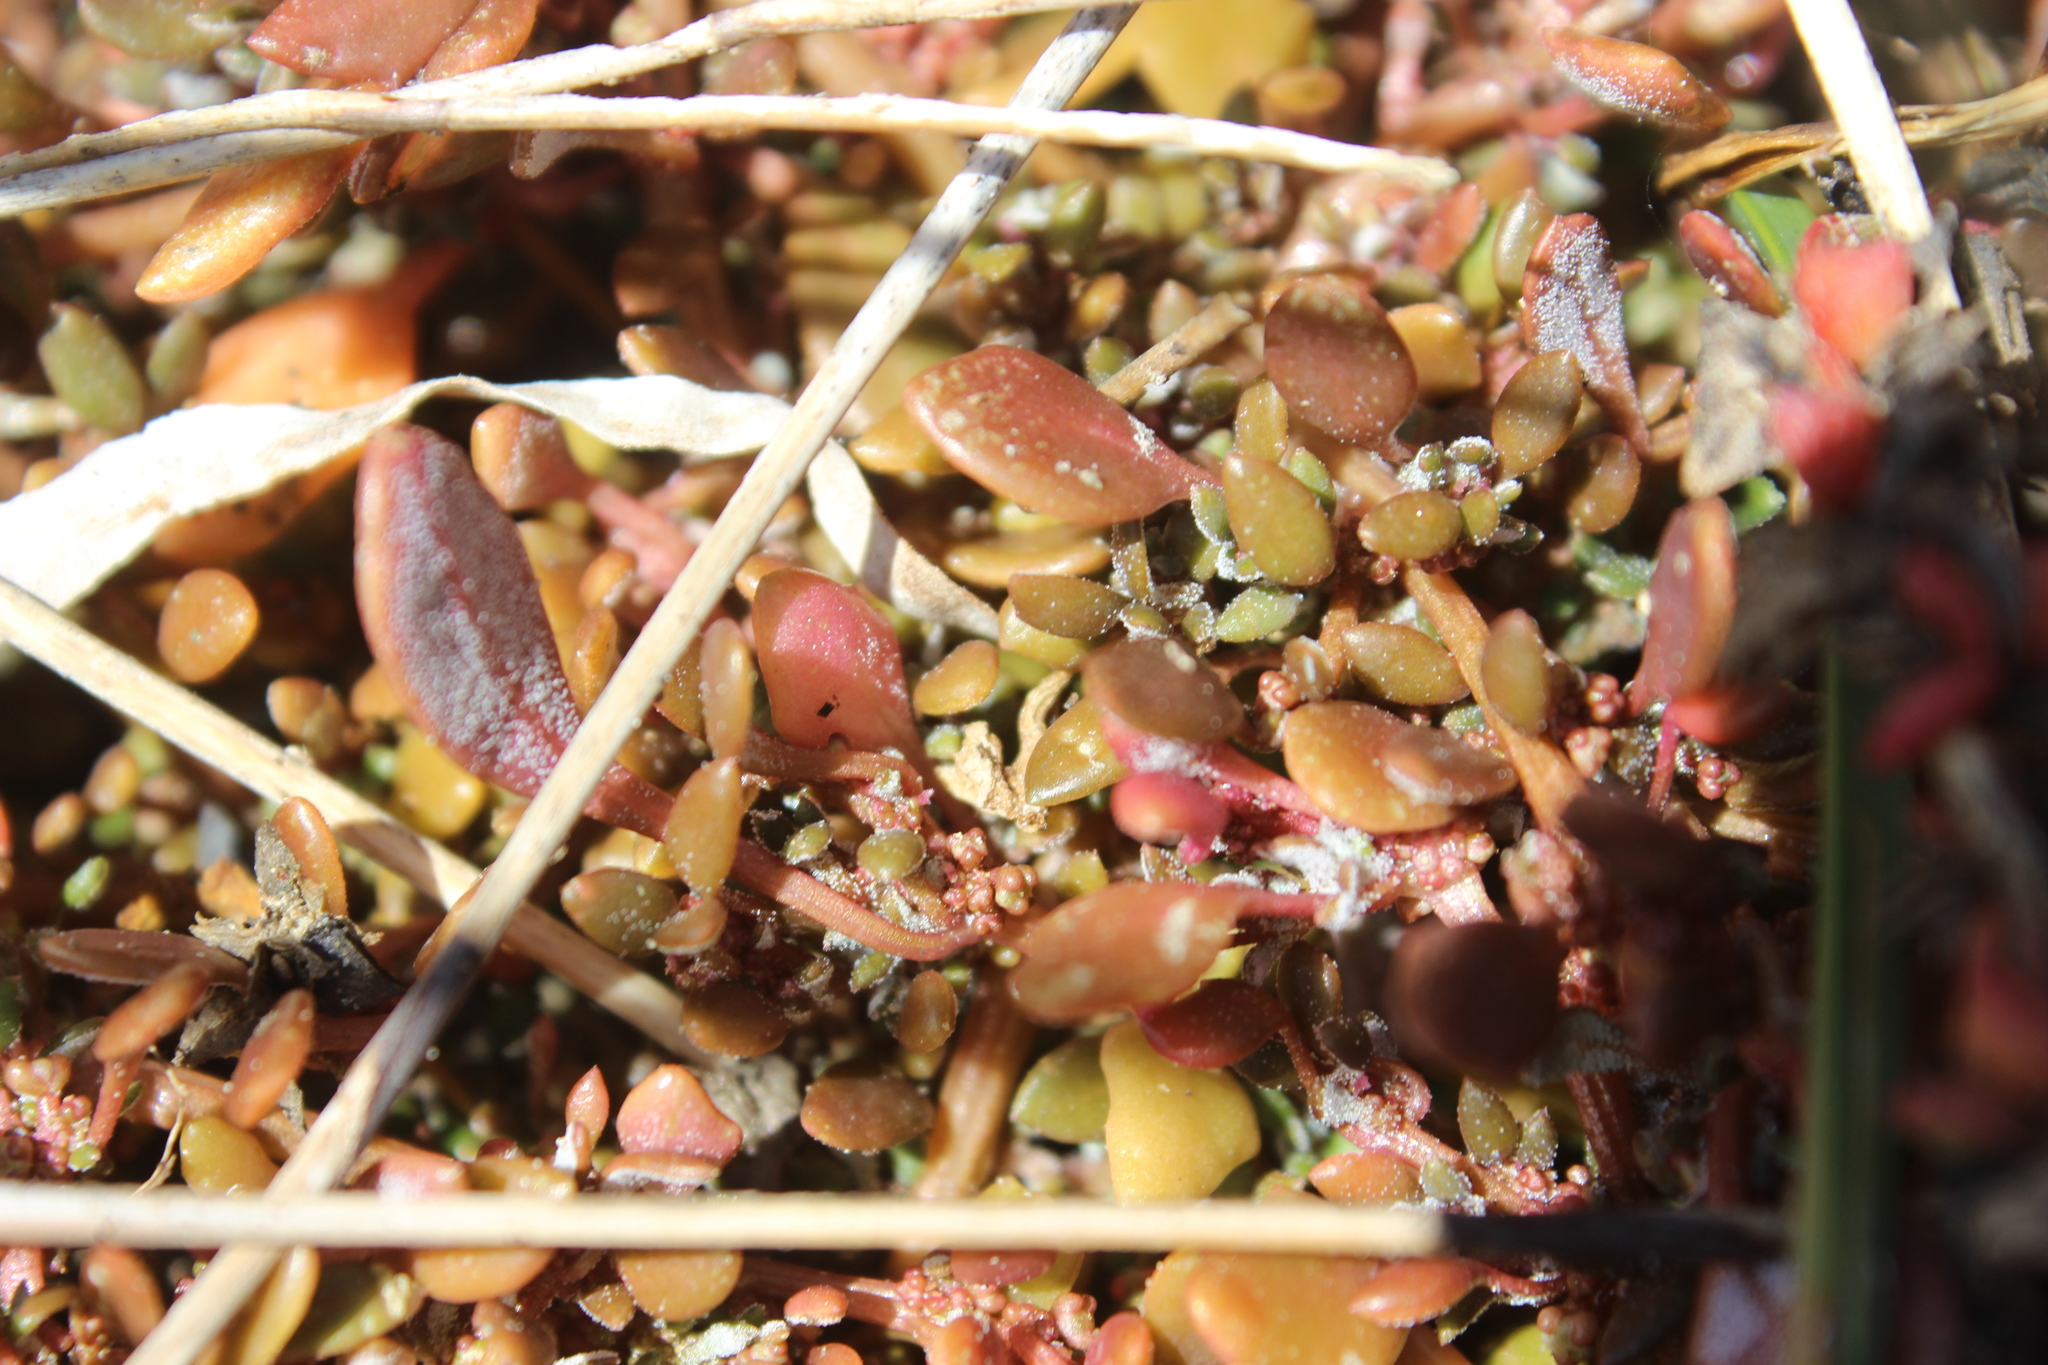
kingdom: Plantae
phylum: Tracheophyta
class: Magnoliopsida
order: Caryophyllales
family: Amaranthaceae
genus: Oxybasis
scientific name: Oxybasis ambigua
